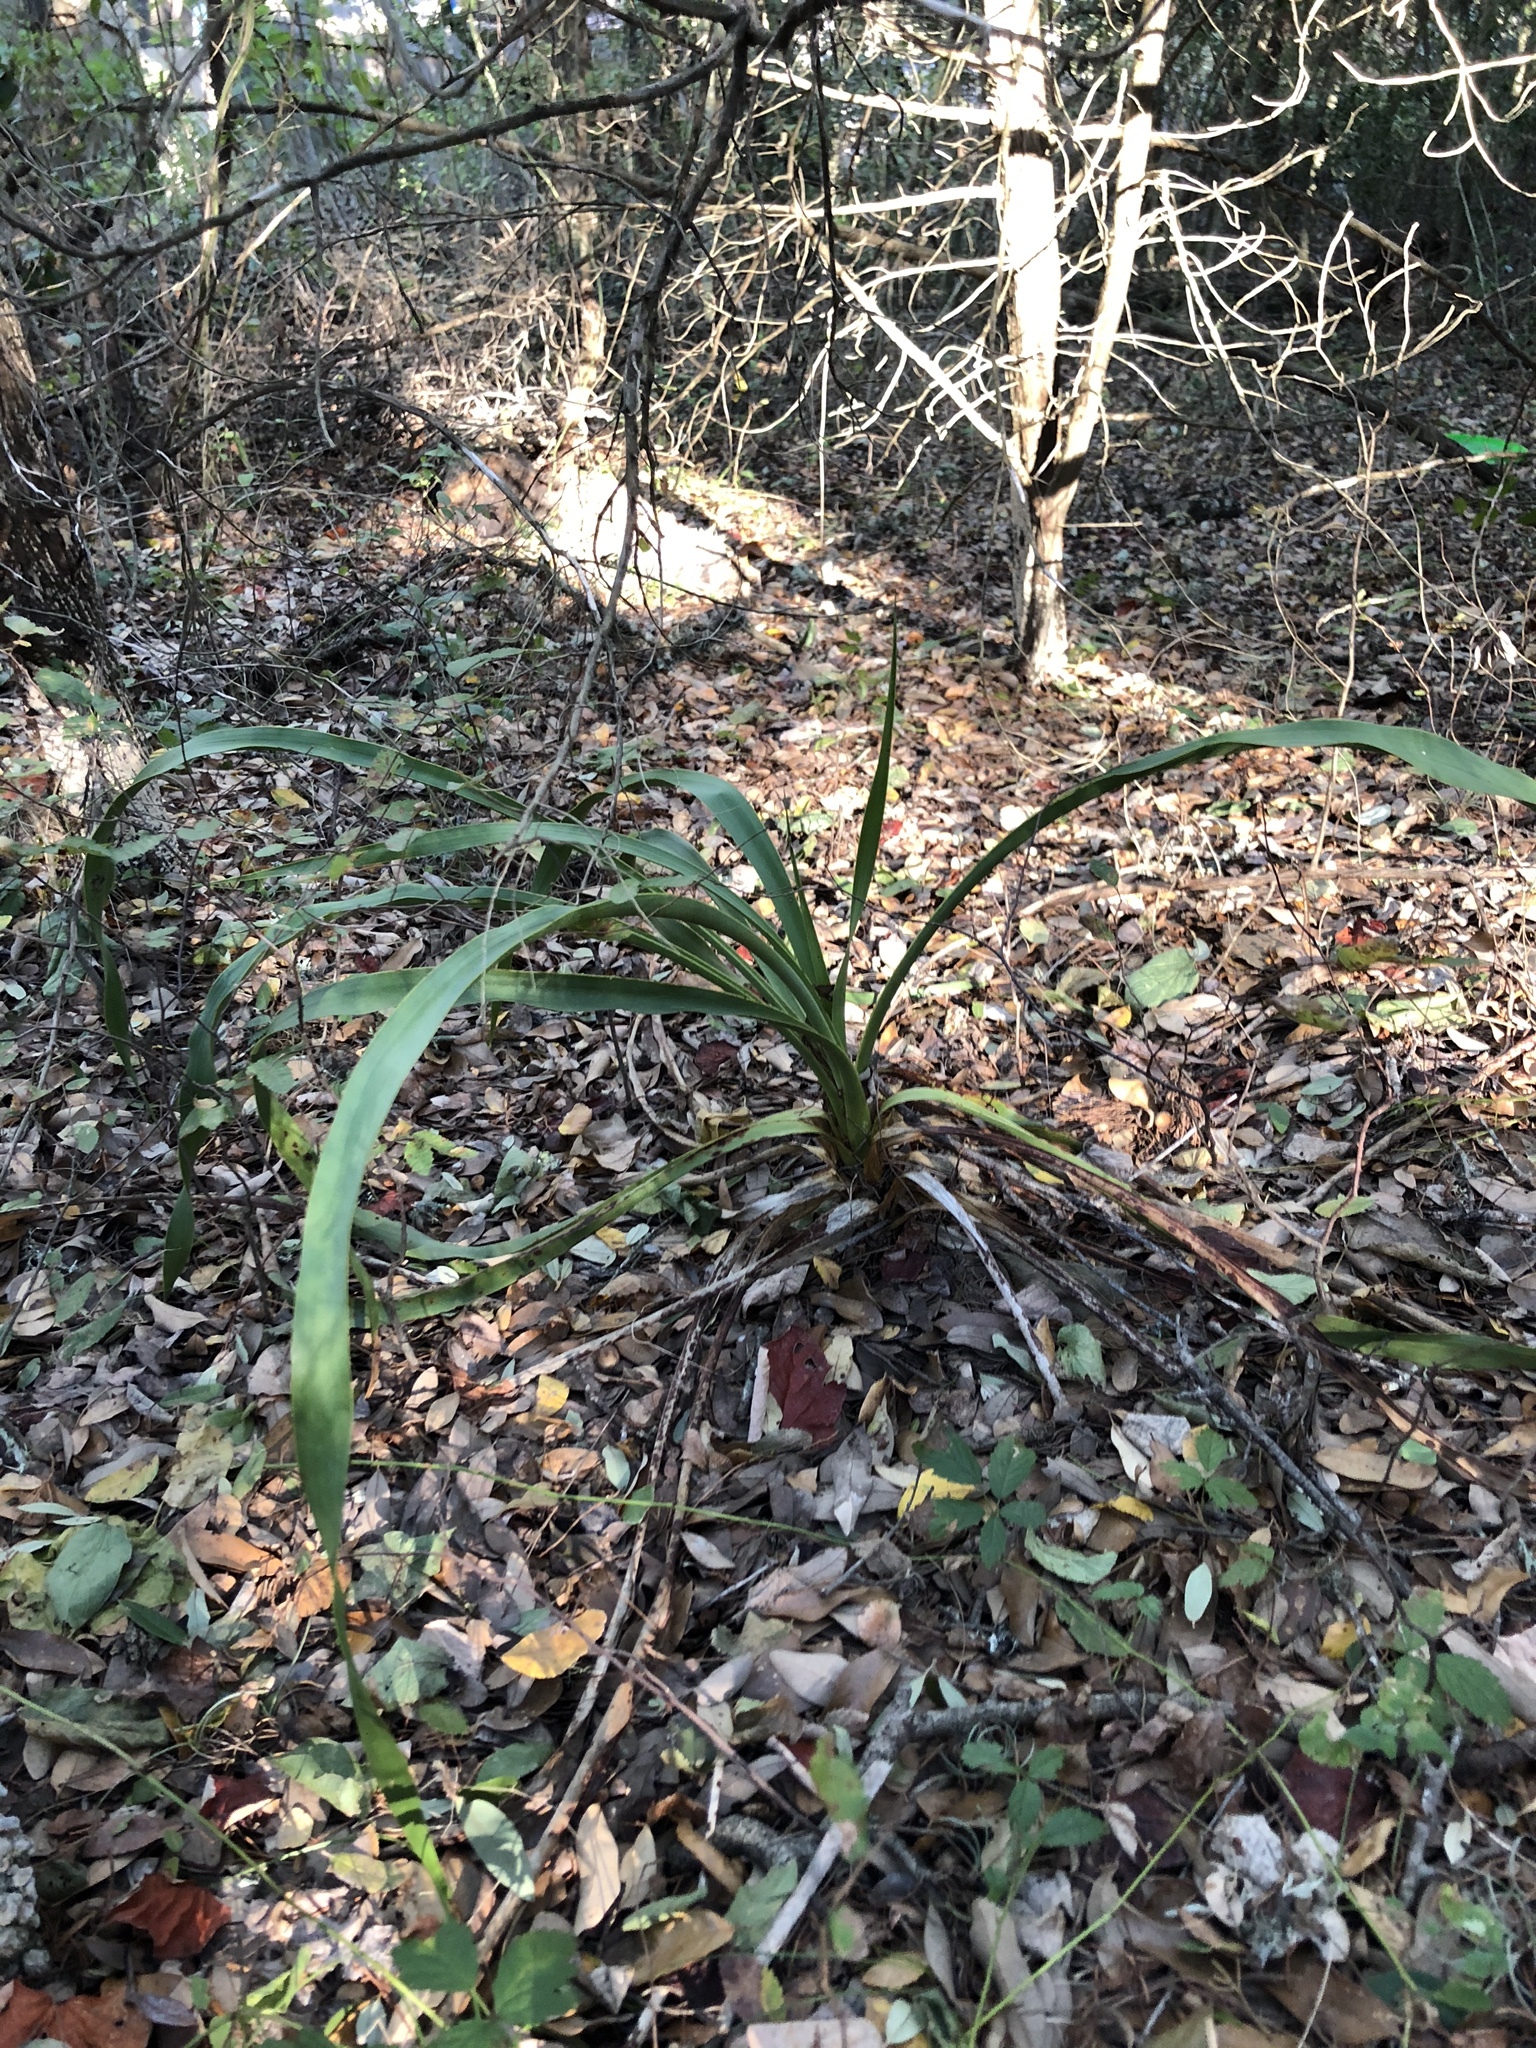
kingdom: Plantae
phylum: Tracheophyta
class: Liliopsida
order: Asparagales
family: Asparagaceae
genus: Yucca
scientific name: Yucca rupicola
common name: Twisted-leaf spanish-dagger
